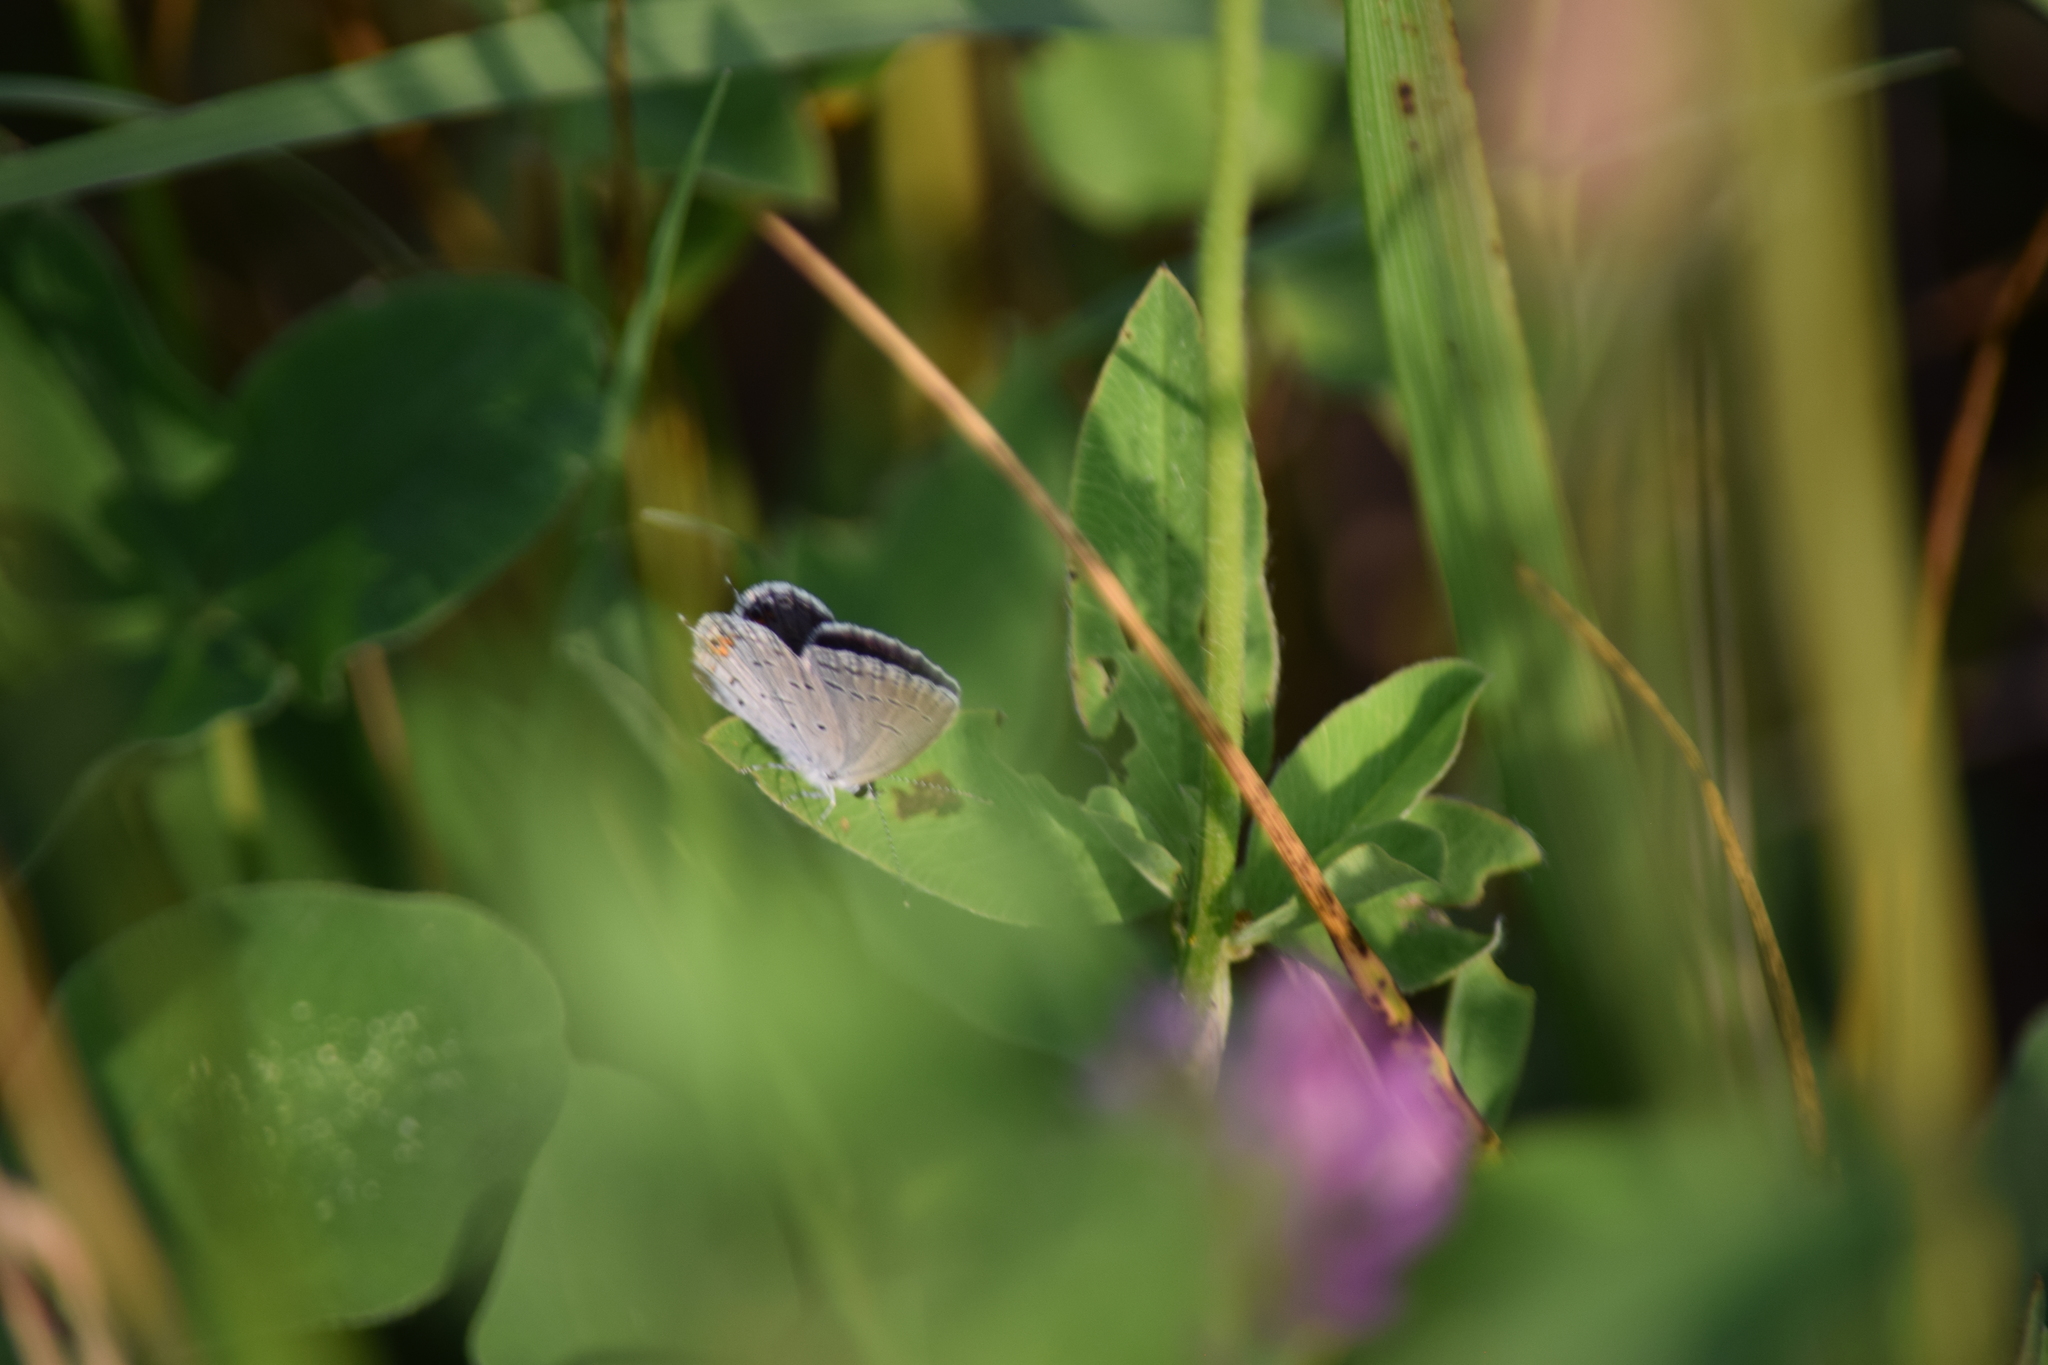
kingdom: Animalia
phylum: Arthropoda
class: Insecta
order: Lepidoptera
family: Lycaenidae
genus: Elkalyce
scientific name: Elkalyce comyntas
